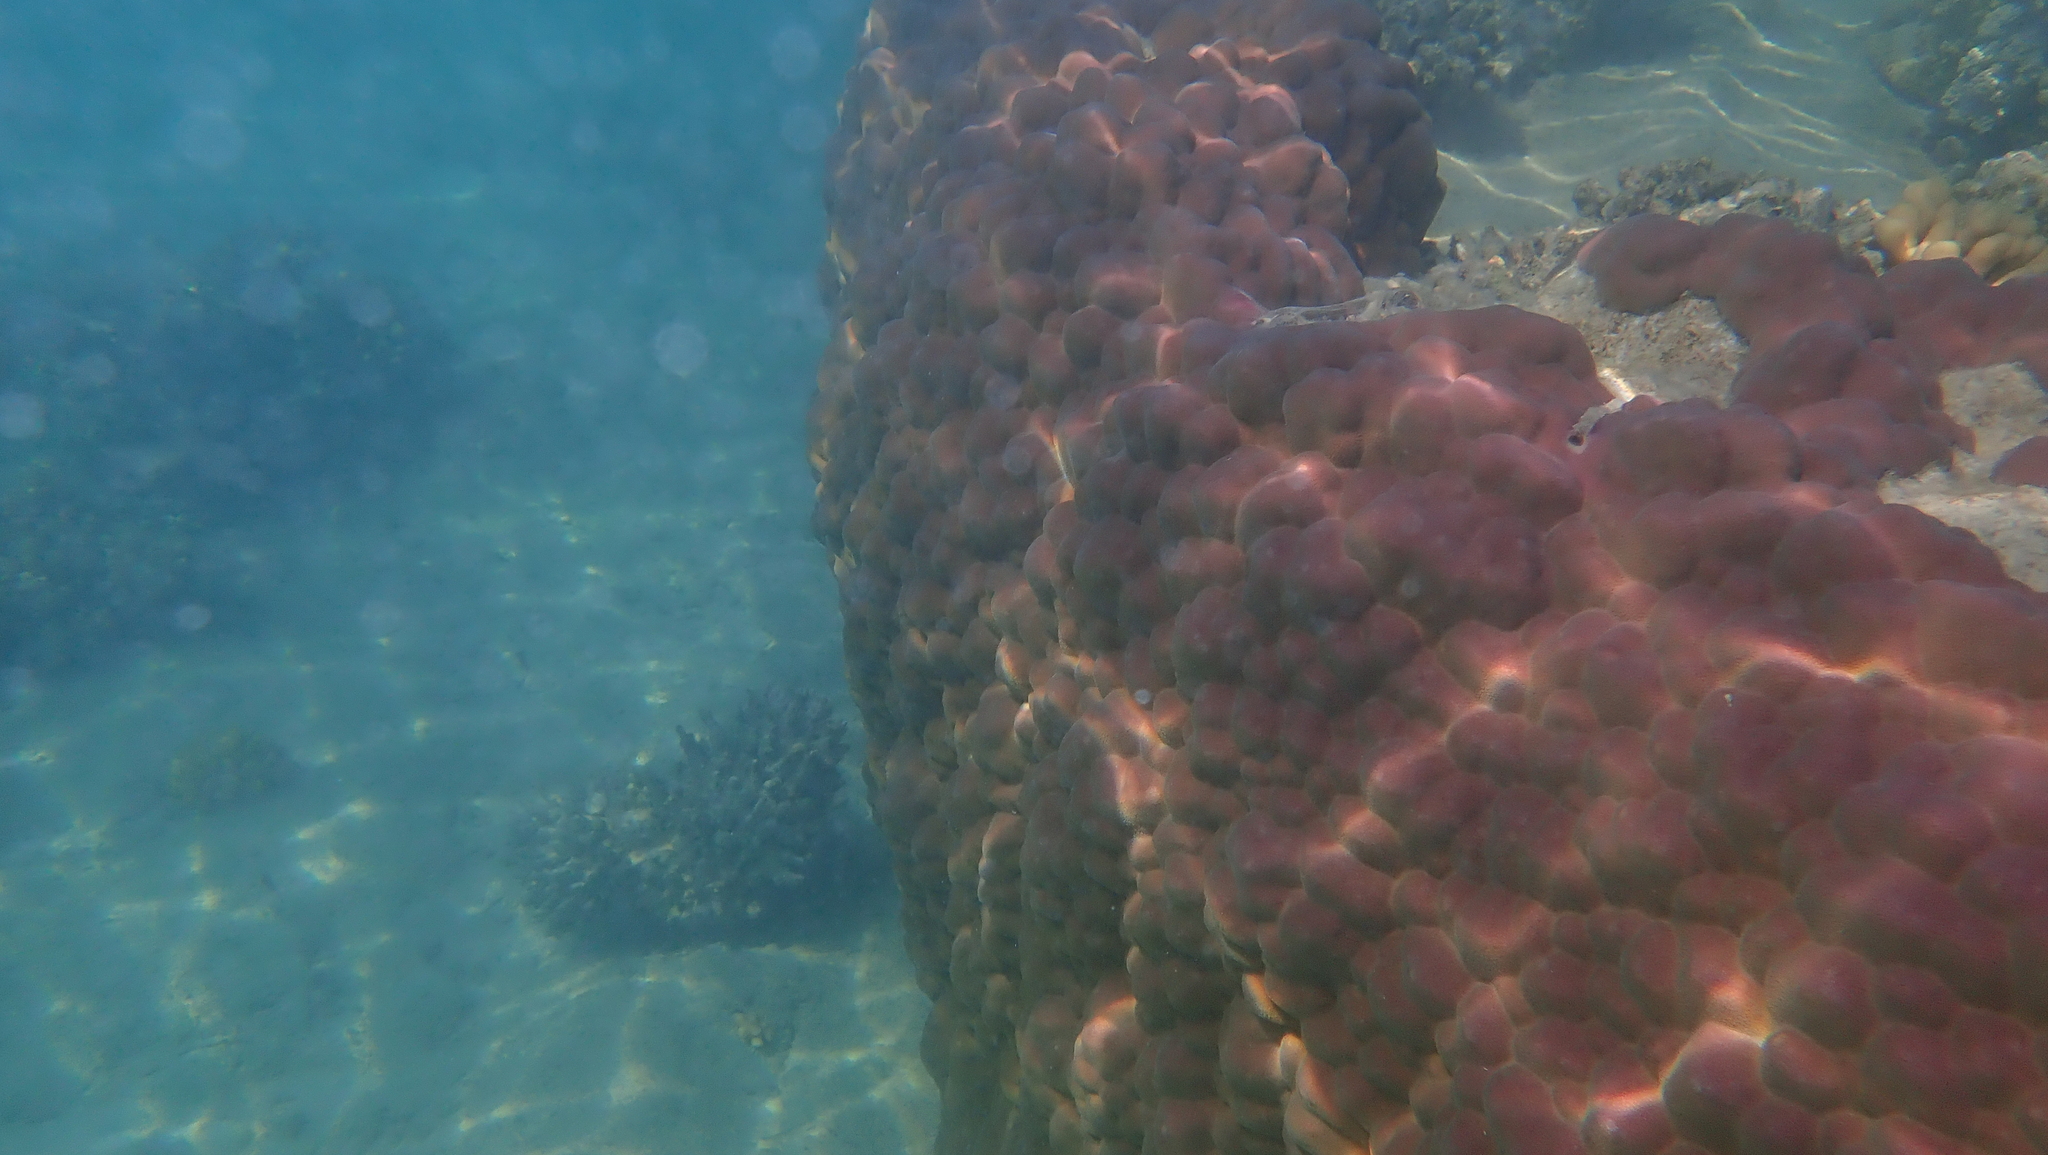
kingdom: Animalia
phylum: Cnidaria
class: Anthozoa
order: Scleractinia
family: Poritidae
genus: Porites
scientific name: Porites
